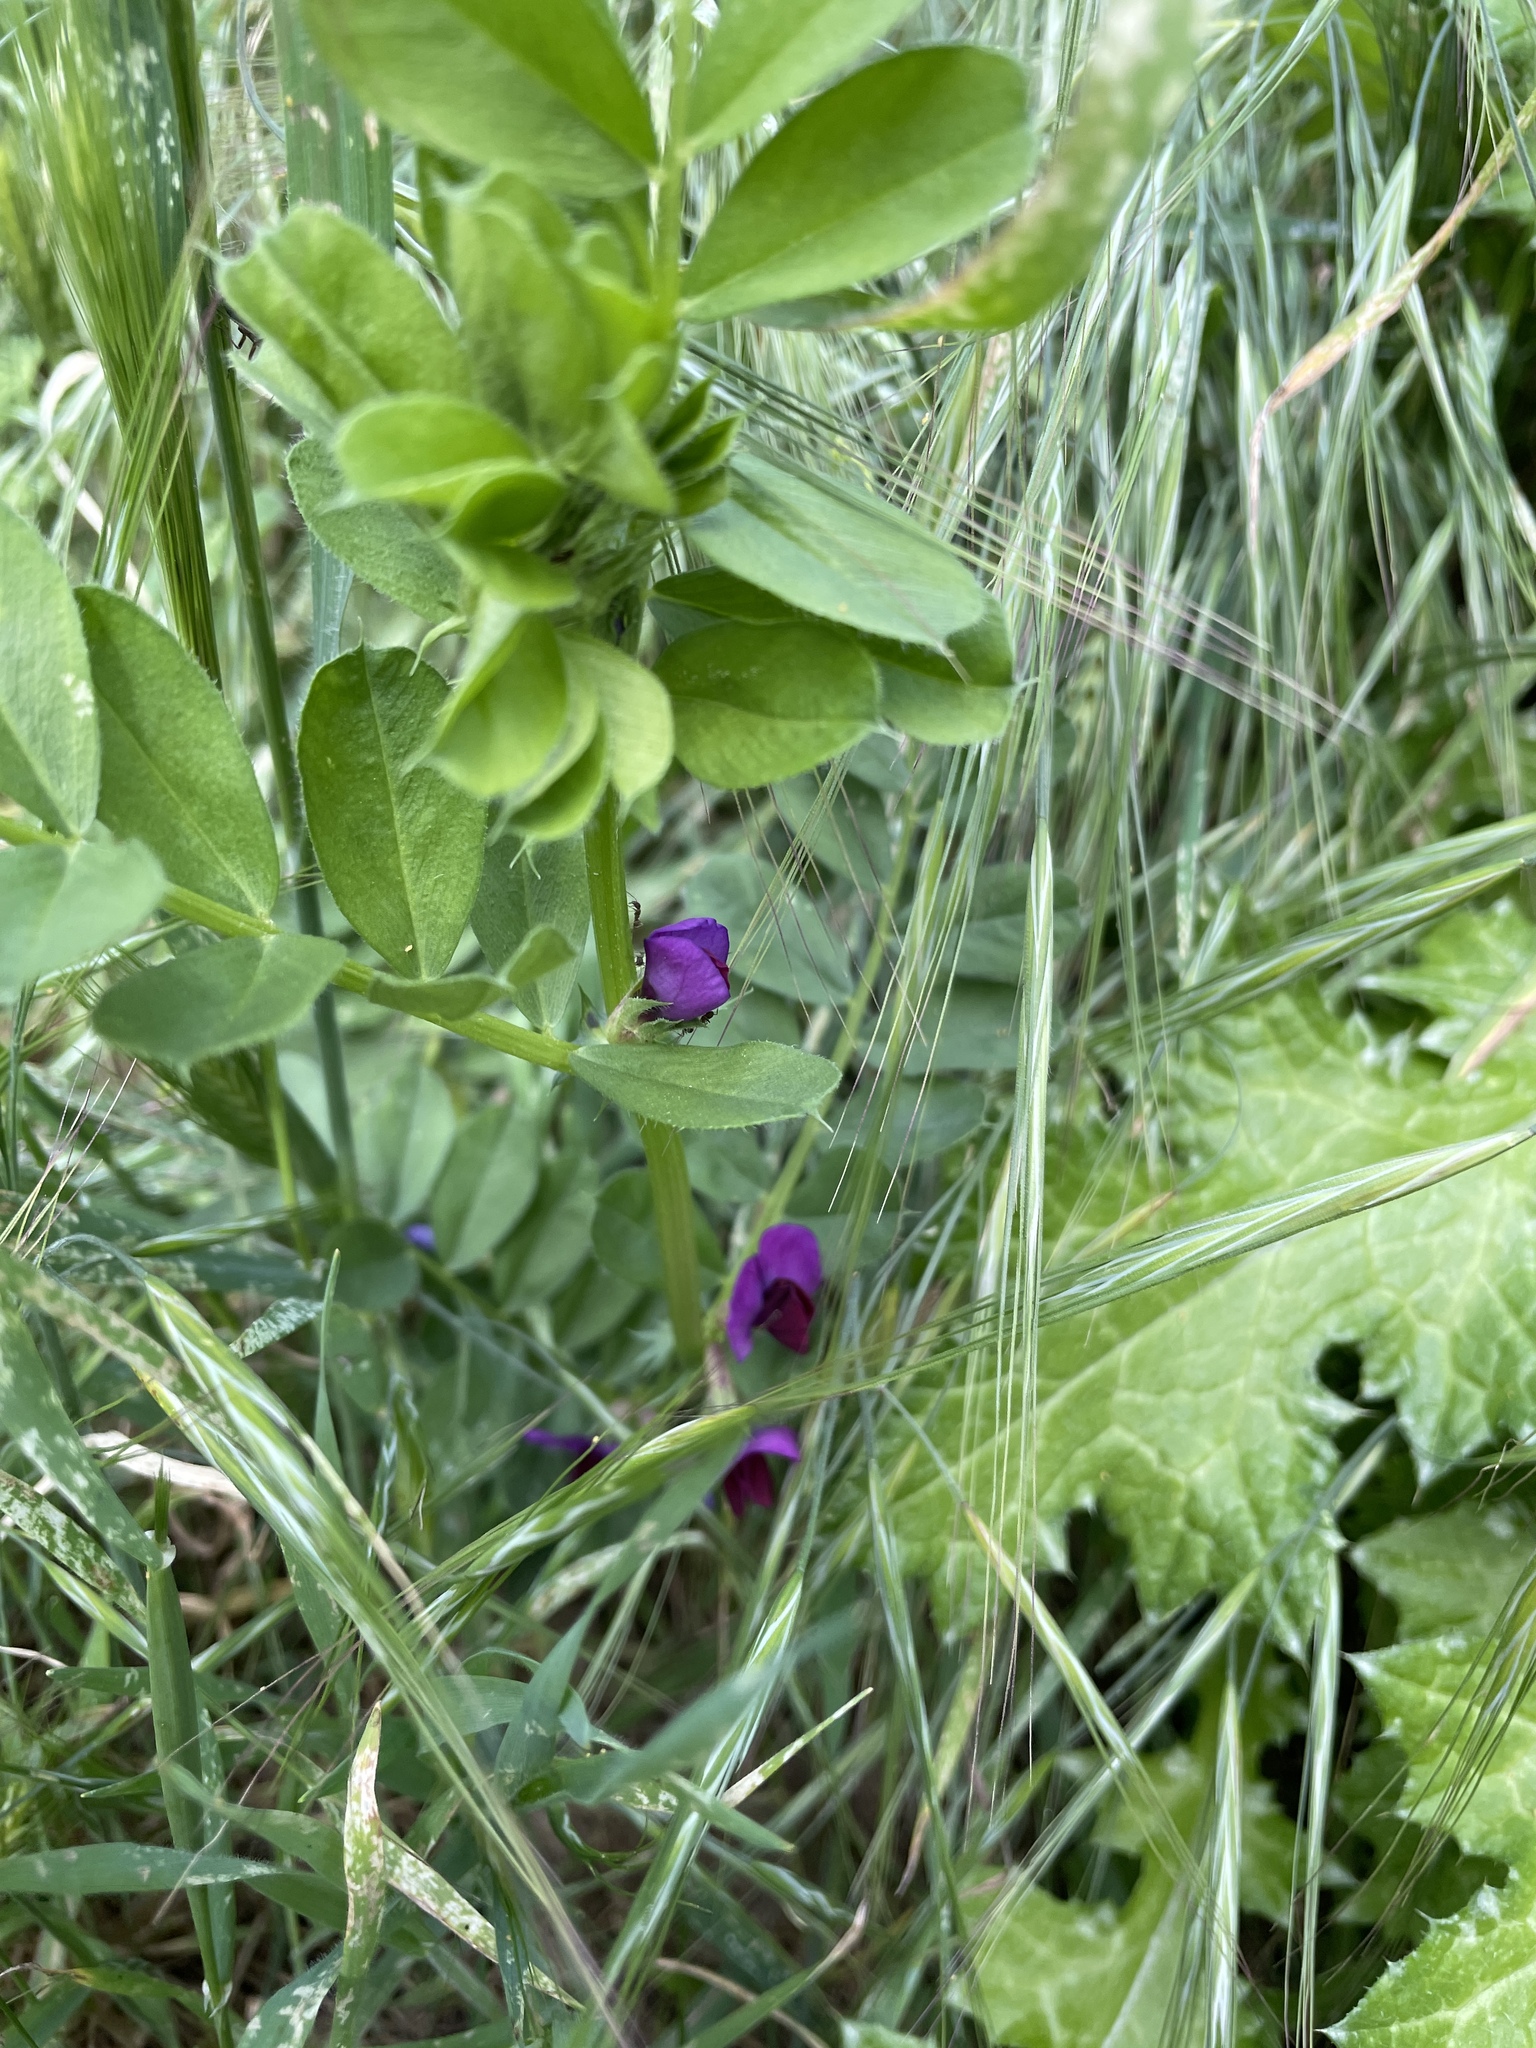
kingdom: Plantae
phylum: Tracheophyta
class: Magnoliopsida
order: Fabales
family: Fabaceae
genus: Vicia
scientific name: Vicia sativa
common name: Garden vetch
